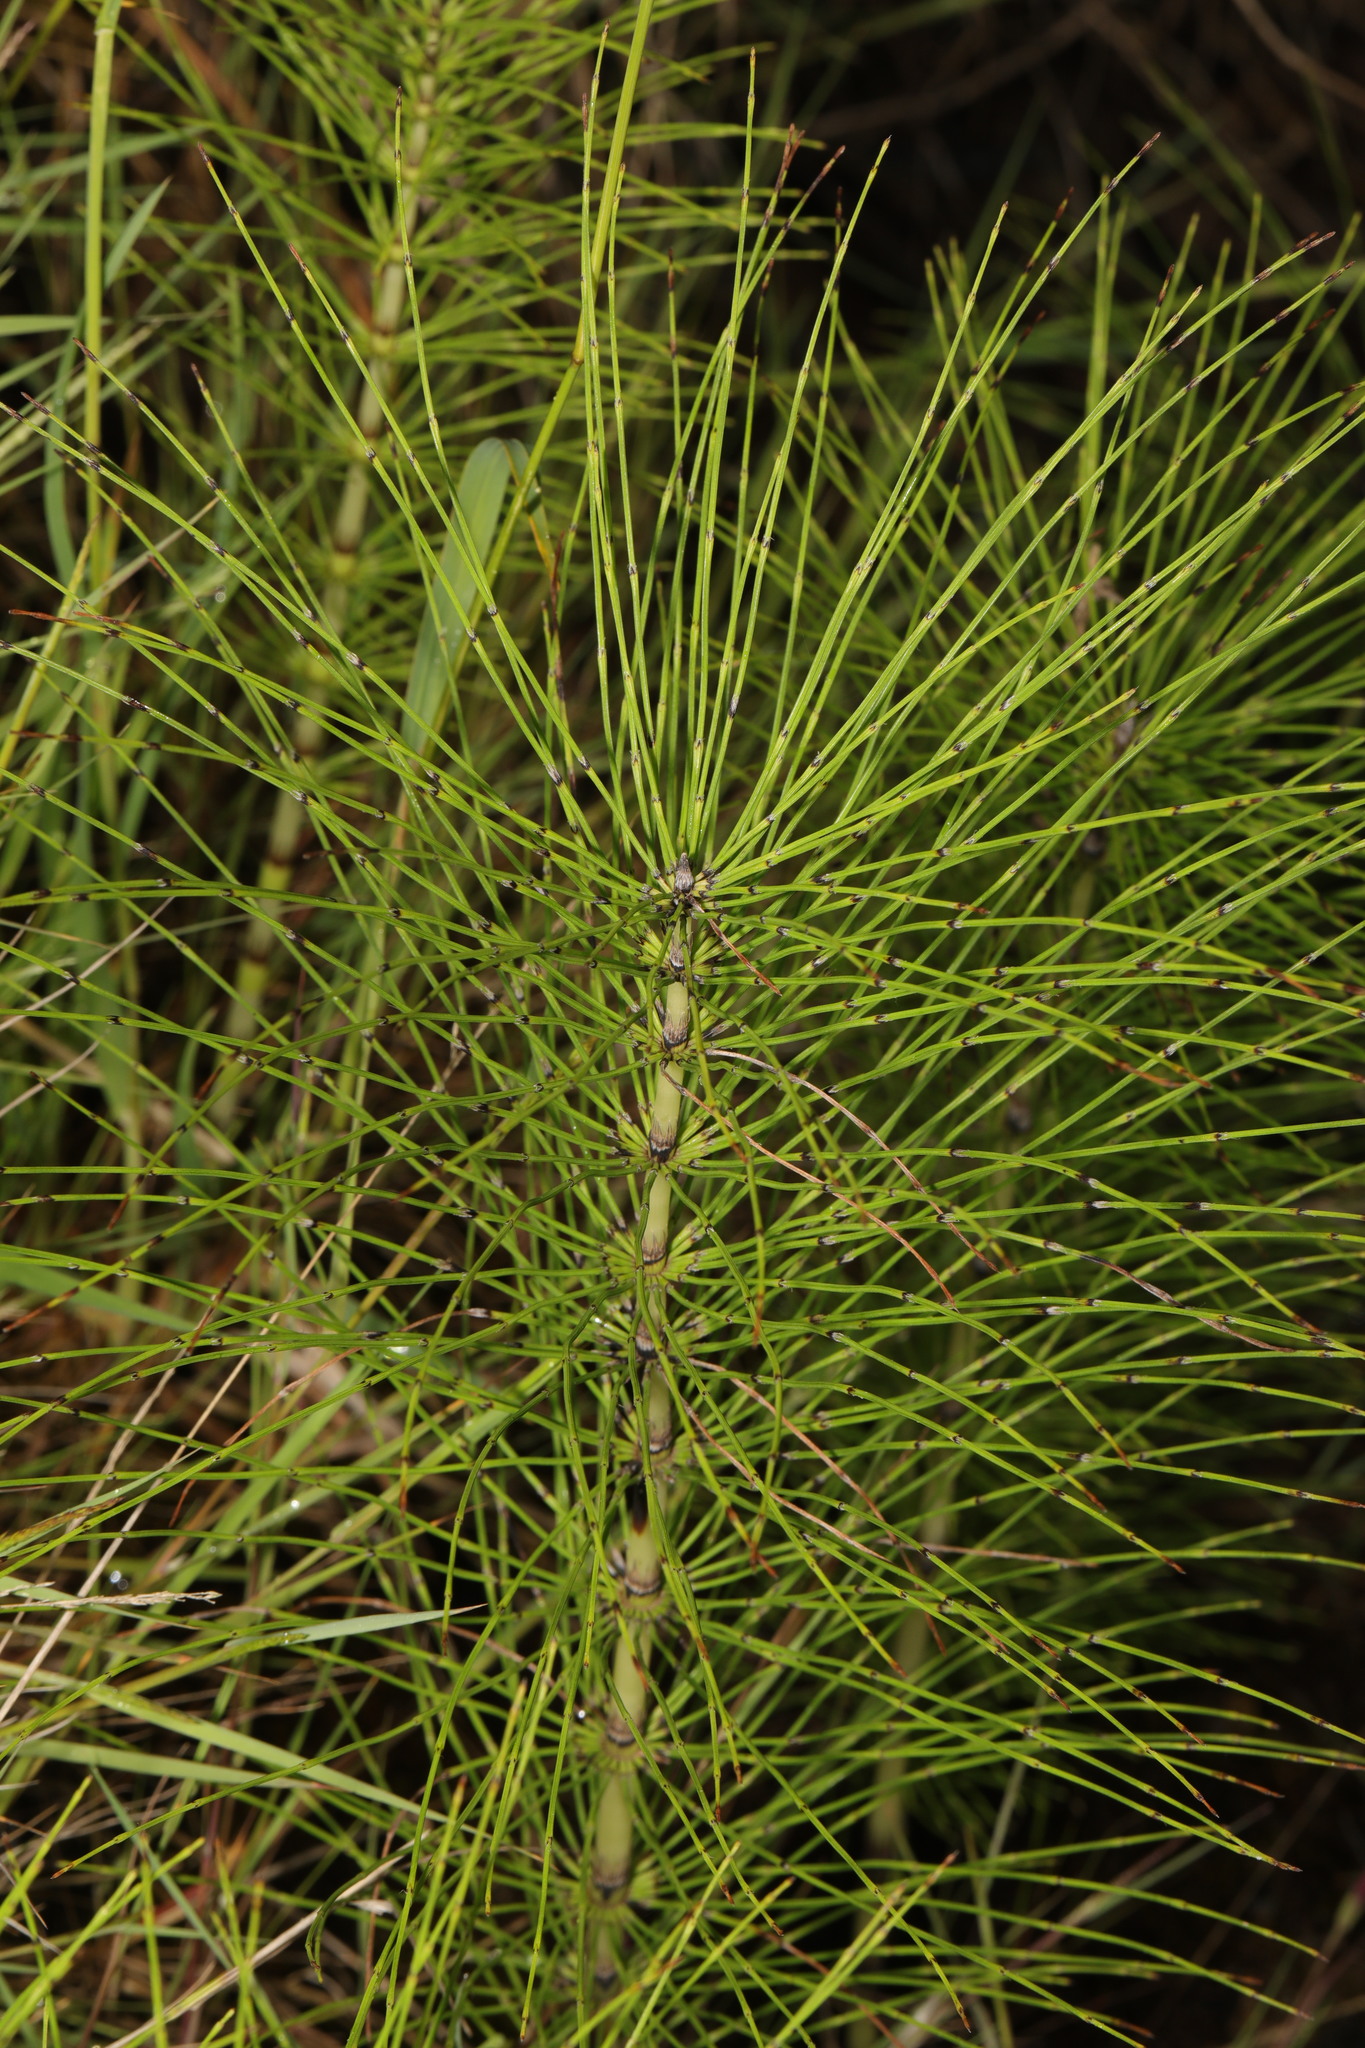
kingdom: Plantae
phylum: Tracheophyta
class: Polypodiopsida
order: Equisetales
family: Equisetaceae
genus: Equisetum
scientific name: Equisetum telmateia
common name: Great horsetail
